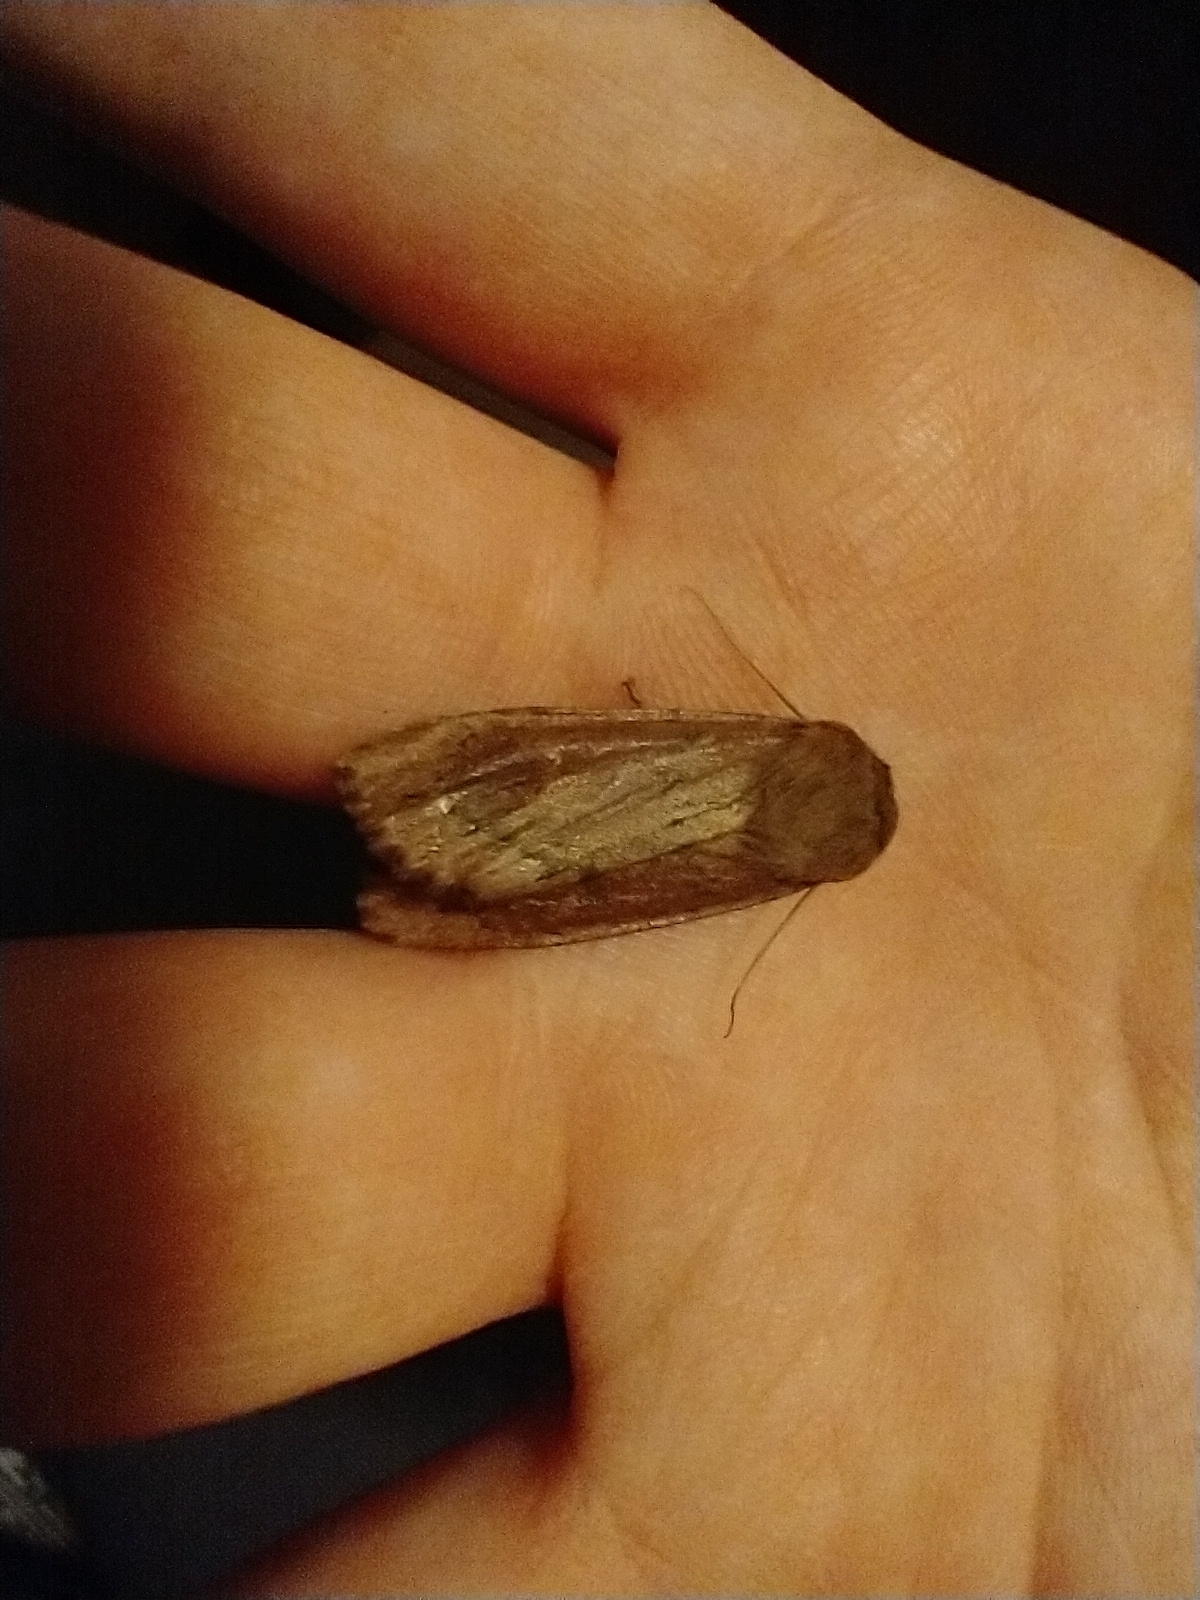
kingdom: Animalia
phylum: Arthropoda
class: Insecta
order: Lepidoptera
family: Noctuidae
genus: Ufeus
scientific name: Ufeus satyricus
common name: Brown satyr moth
